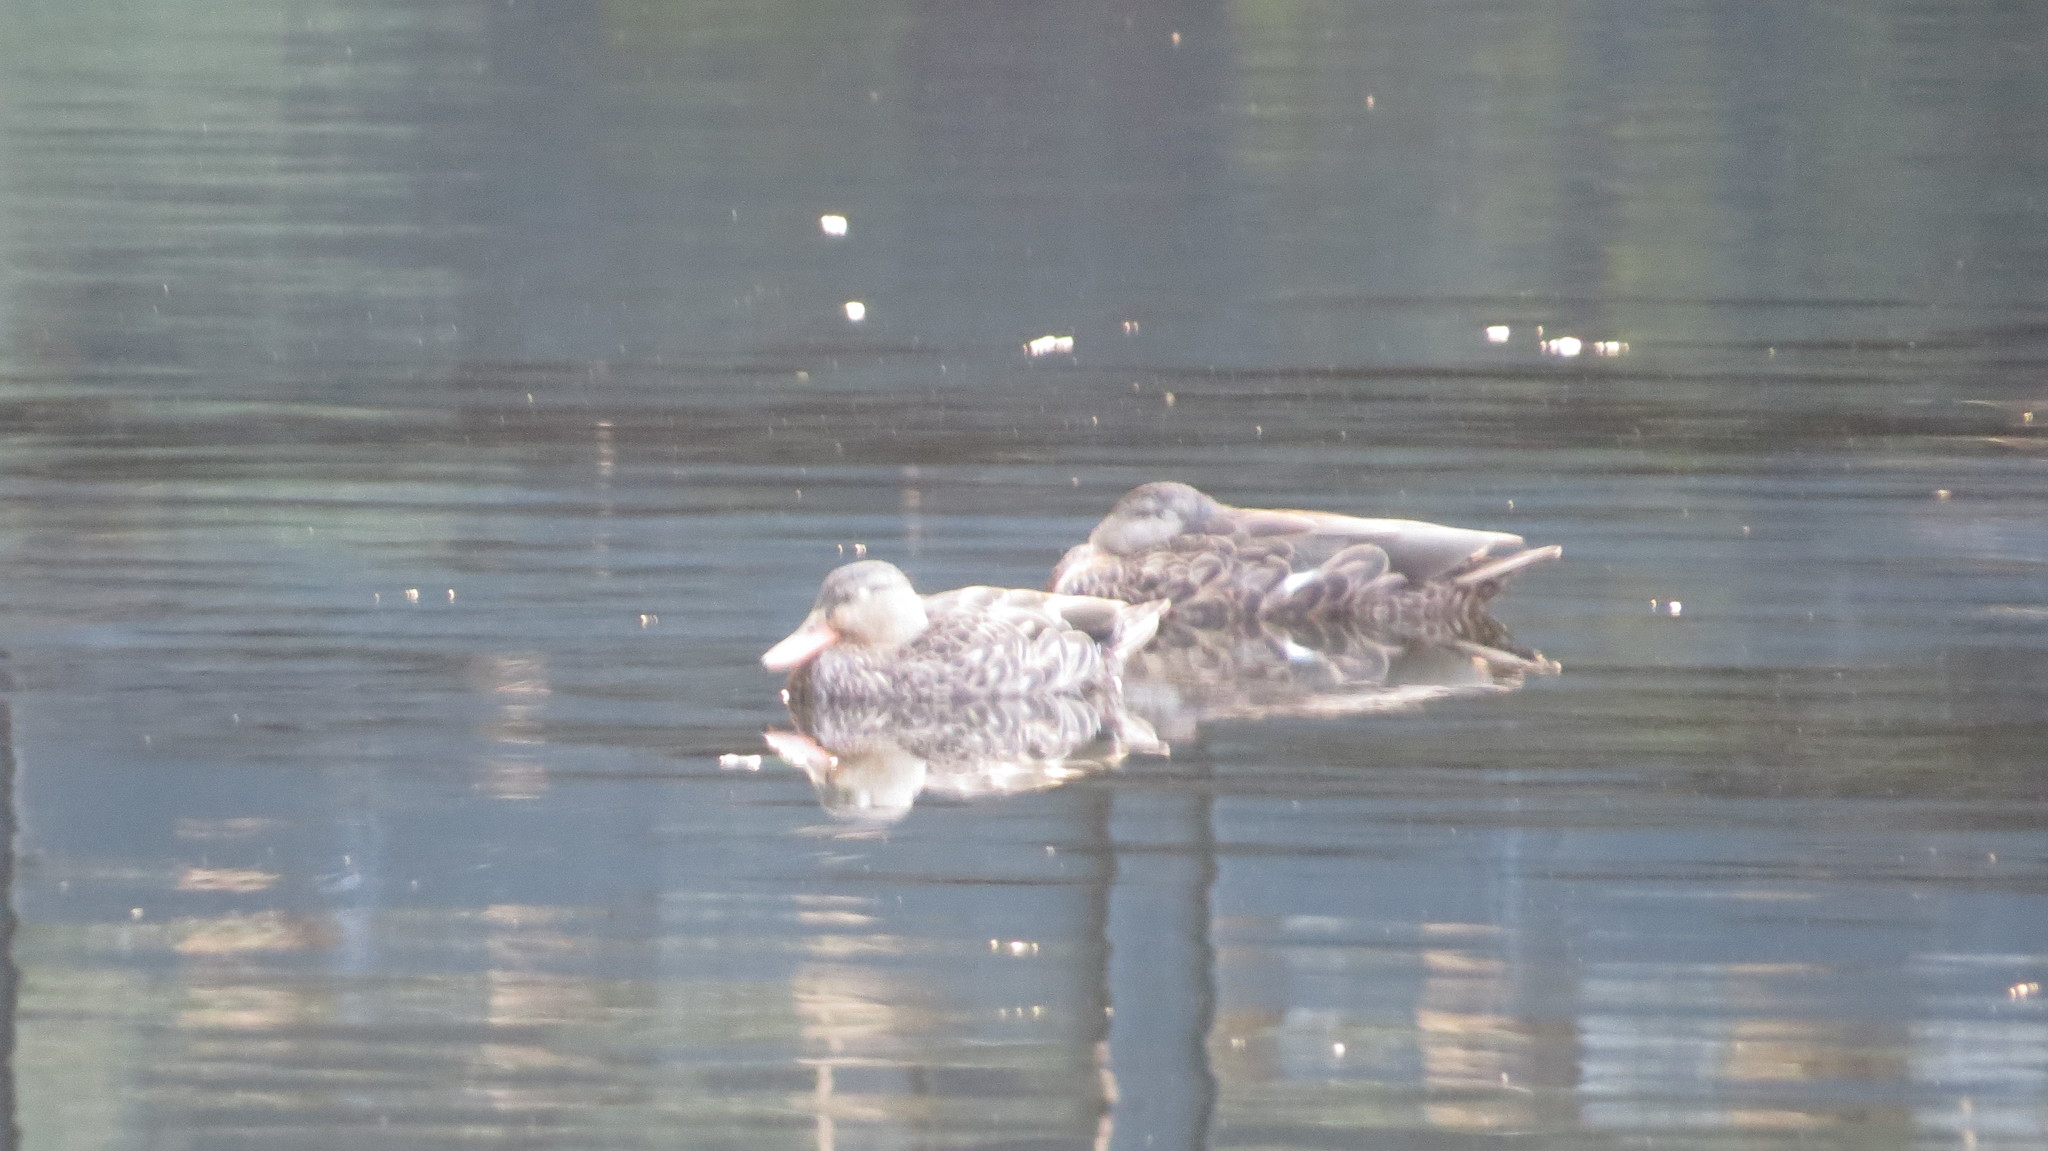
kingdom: Animalia
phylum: Chordata
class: Aves
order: Anseriformes
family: Anatidae
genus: Anas
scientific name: Anas diazi
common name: Mexican duck
